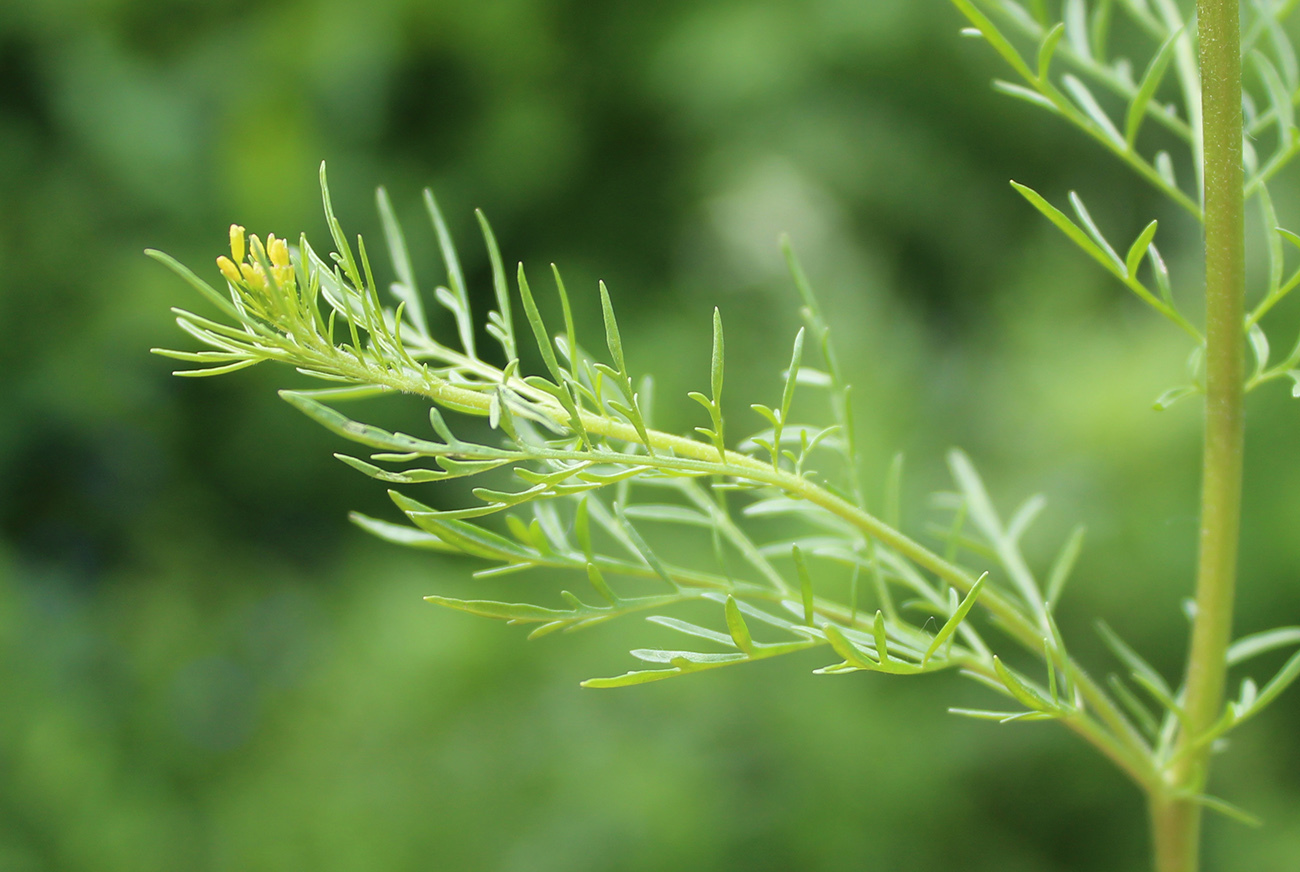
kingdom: Plantae
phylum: Tracheophyta
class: Magnoliopsida
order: Brassicales
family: Brassicaceae
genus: Descurainia
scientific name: Descurainia sophia
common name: Flixweed
